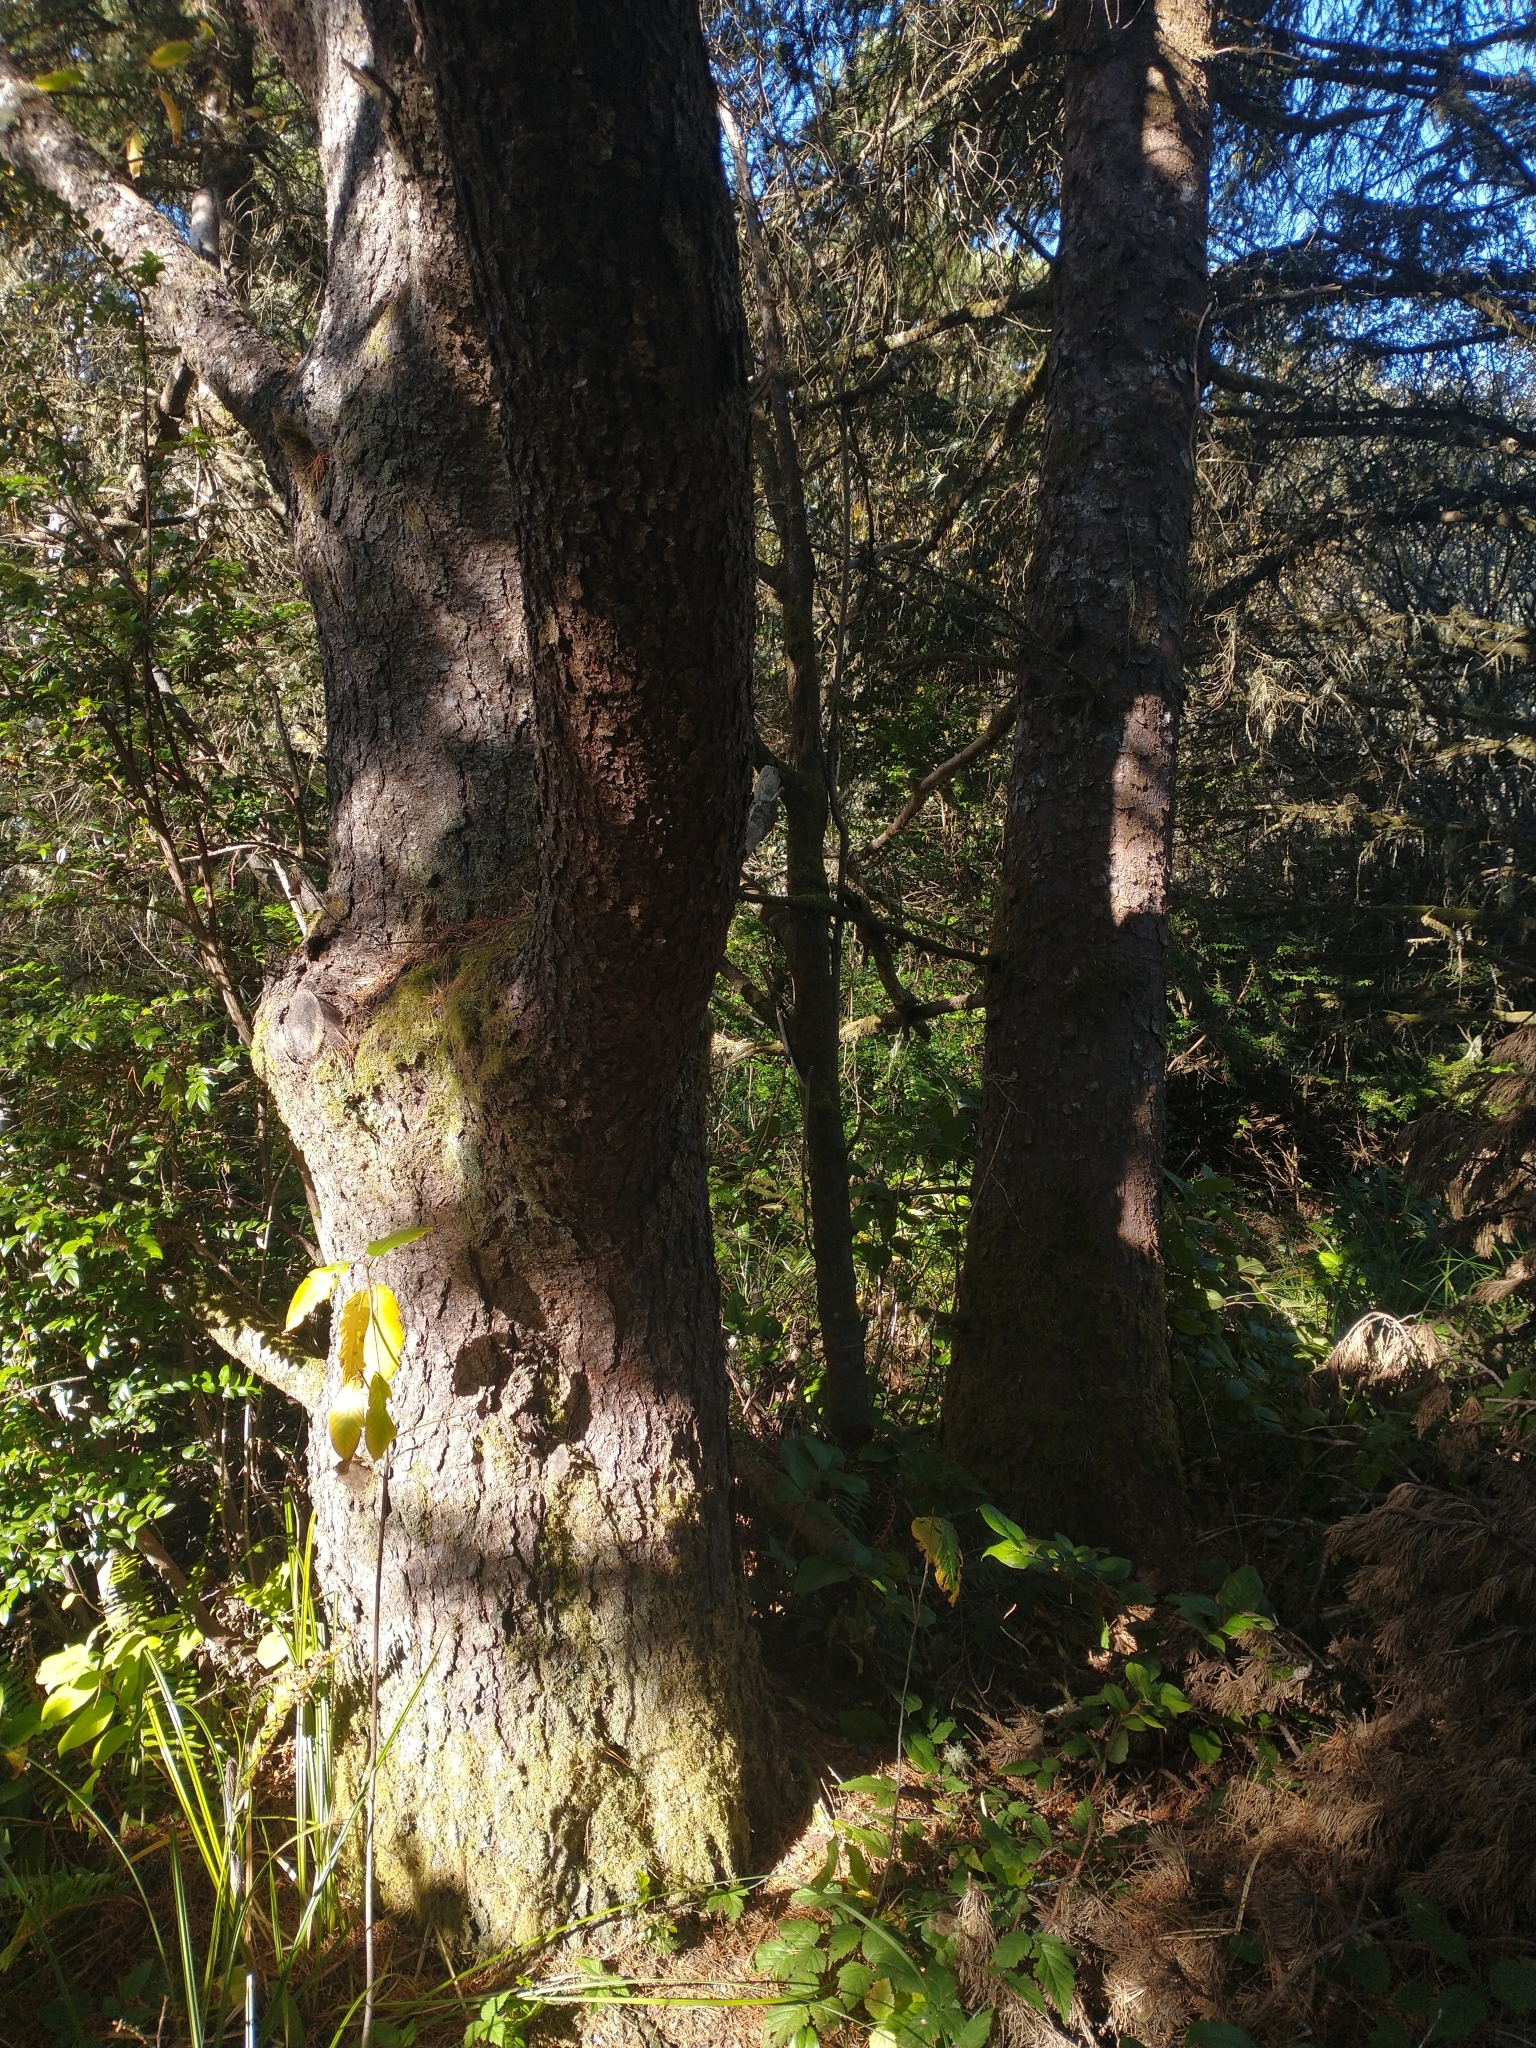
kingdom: Plantae
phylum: Tracheophyta
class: Pinopsida
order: Pinales
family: Pinaceae
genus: Pinus
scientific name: Pinus contorta
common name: Lodgepole pine
